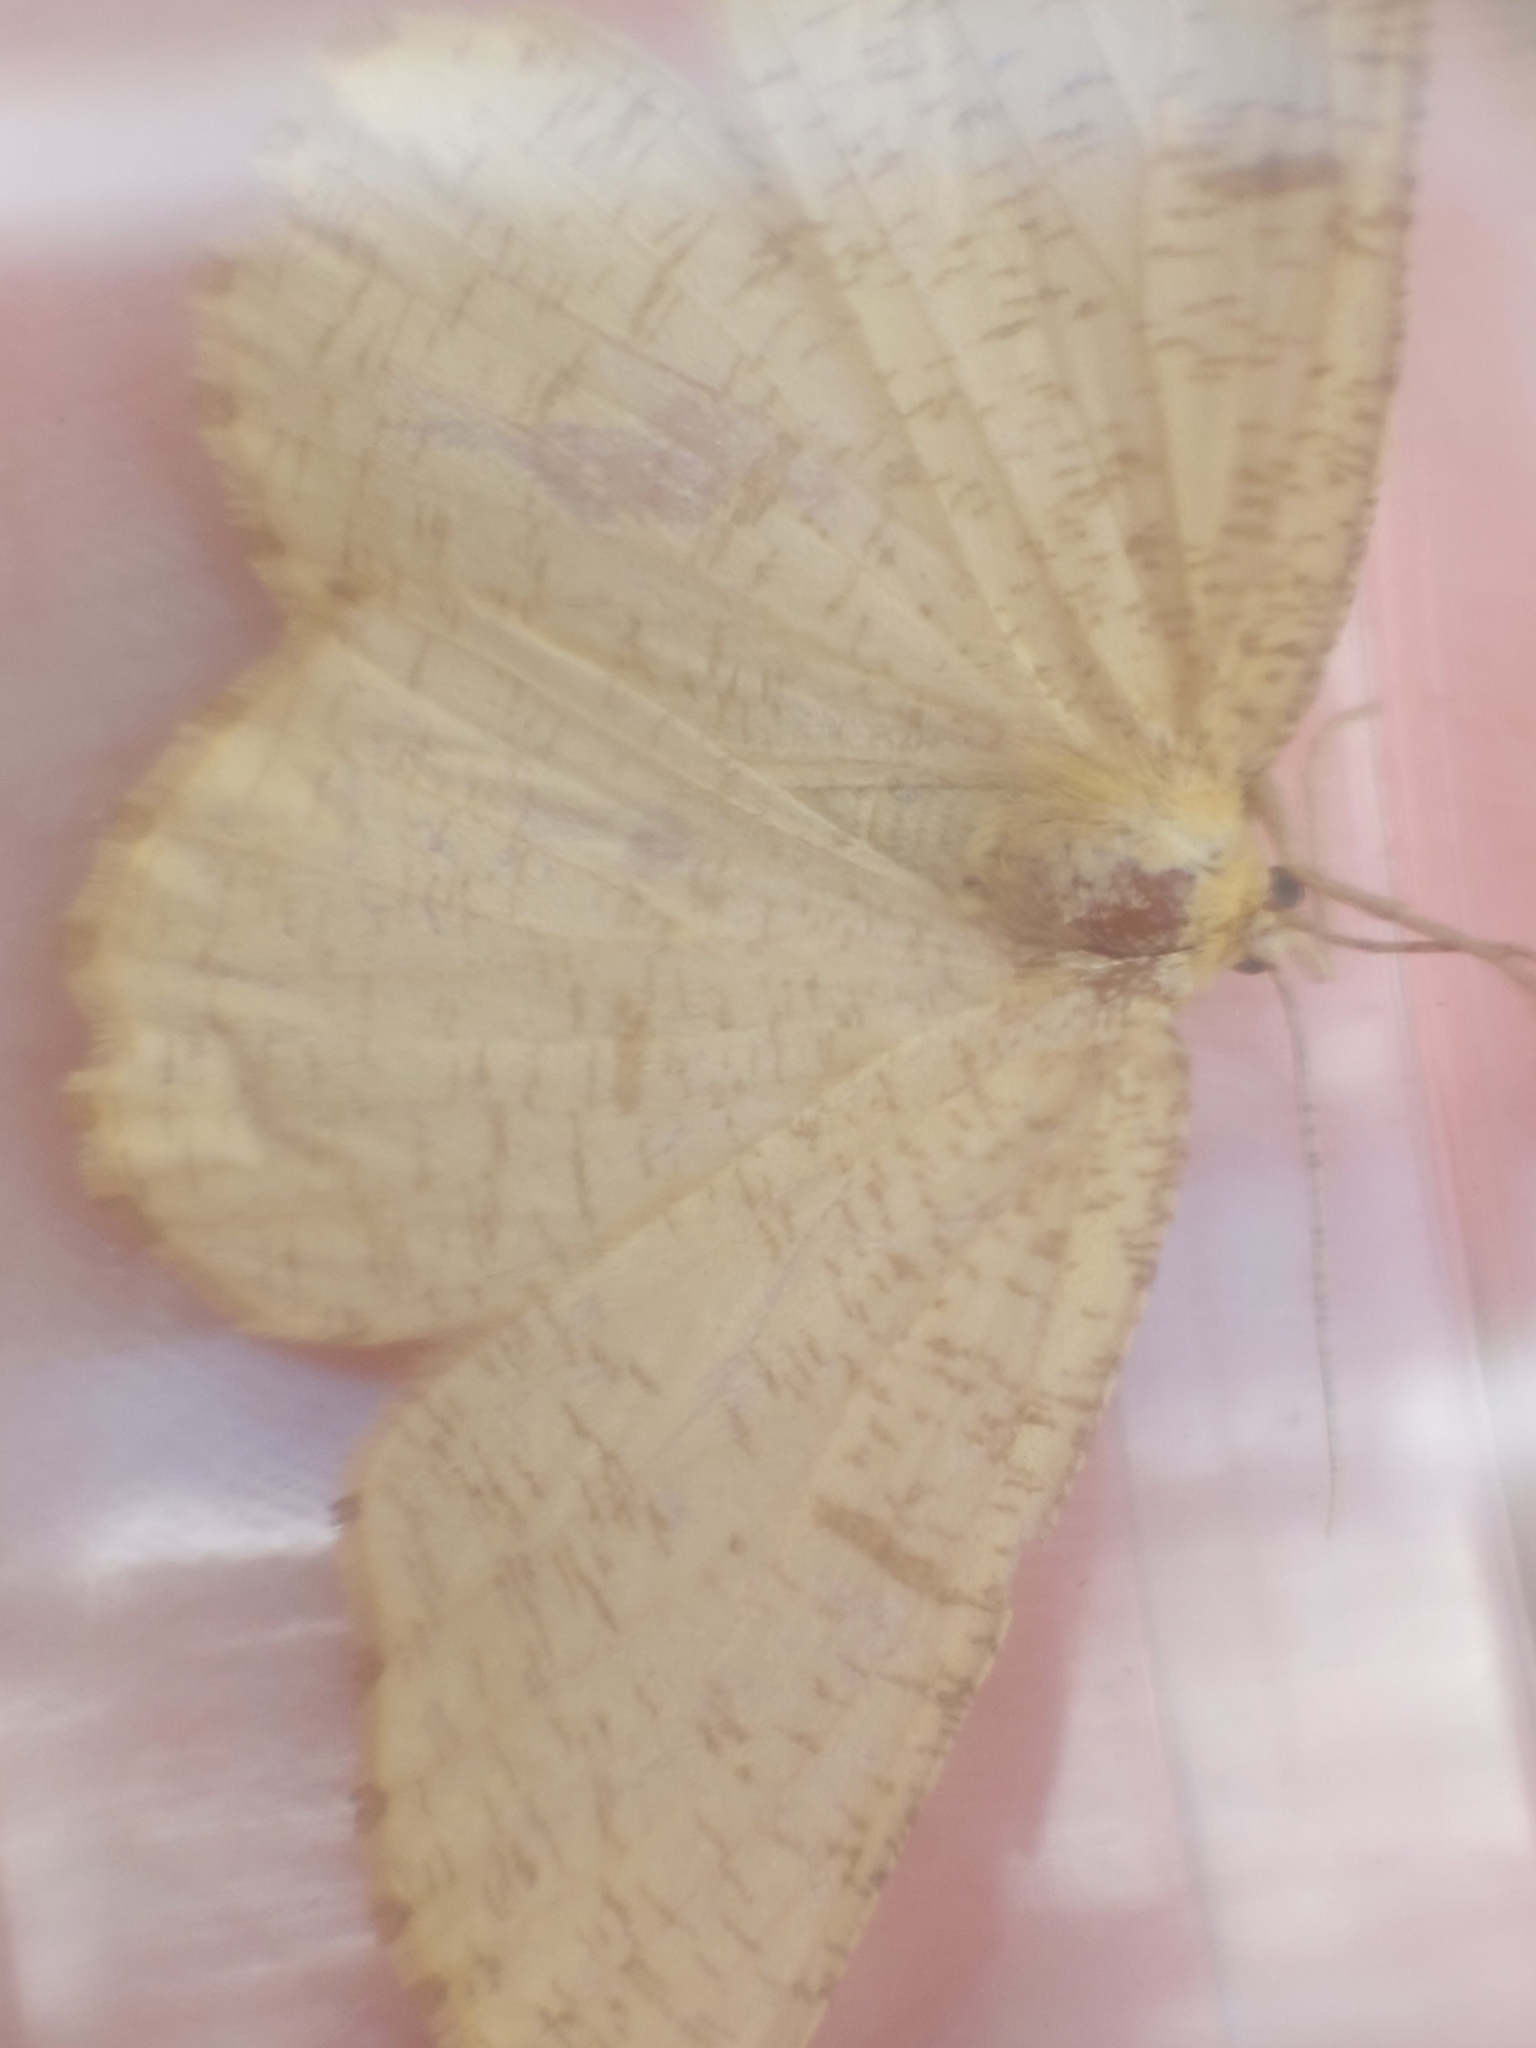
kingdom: Animalia
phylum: Arthropoda
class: Insecta
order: Lepidoptera
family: Geometridae
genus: Angerona
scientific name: Angerona prunaria
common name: Orange moth
